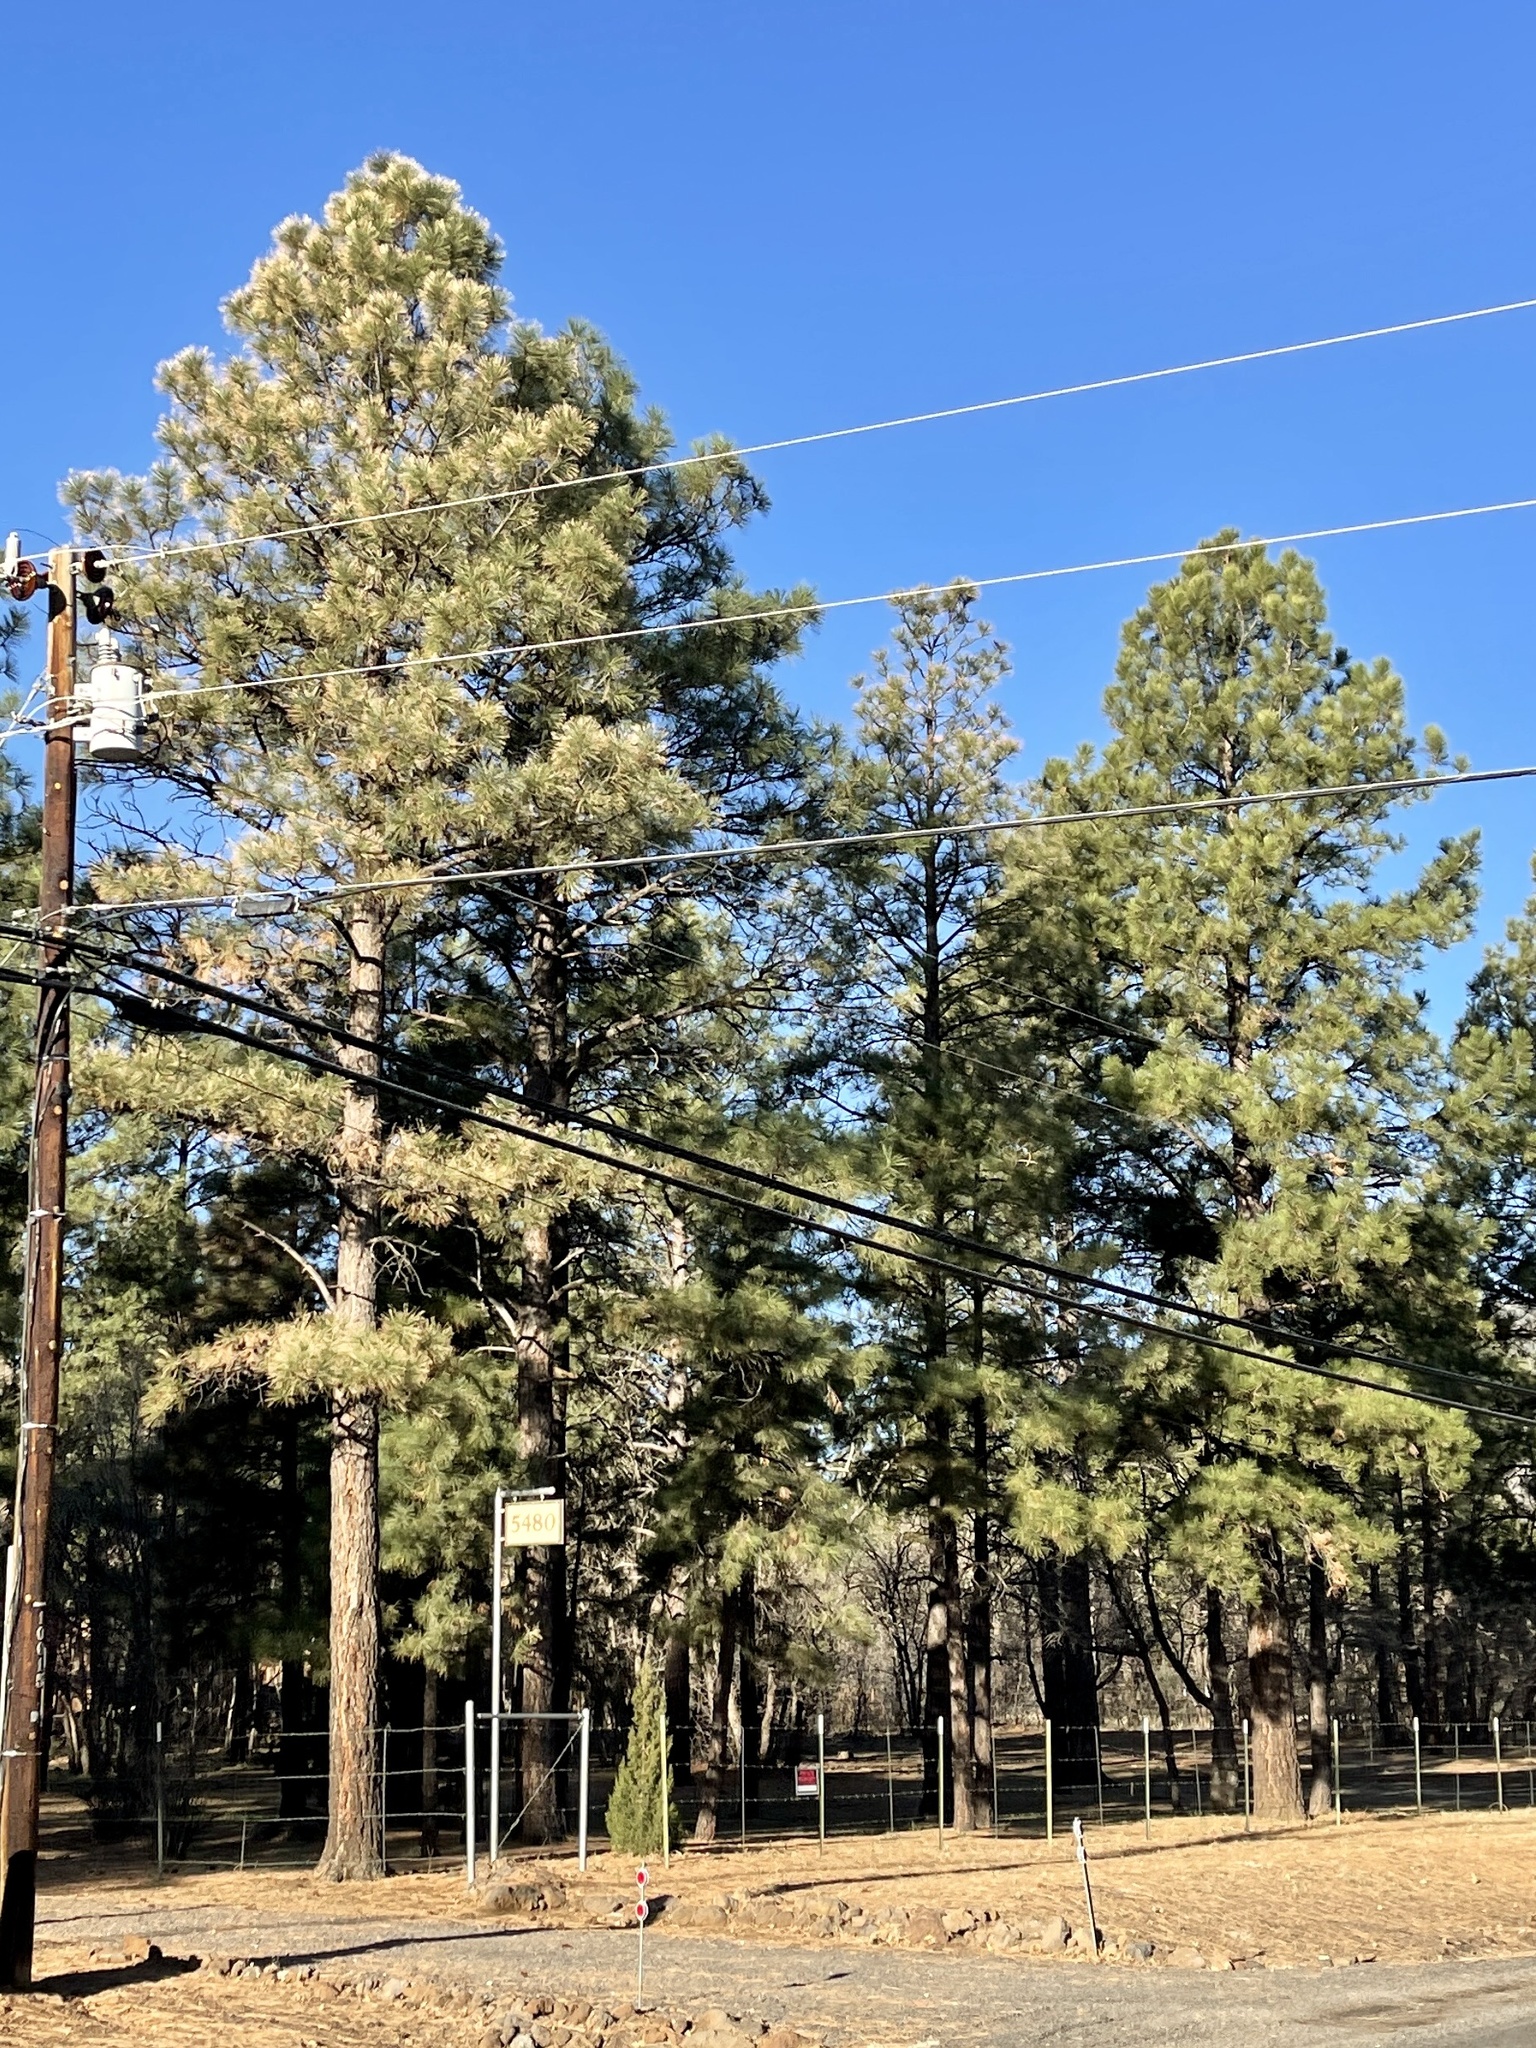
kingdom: Plantae
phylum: Tracheophyta
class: Pinopsida
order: Pinales
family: Pinaceae
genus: Pinus
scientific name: Pinus ponderosa
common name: Western yellow-pine
